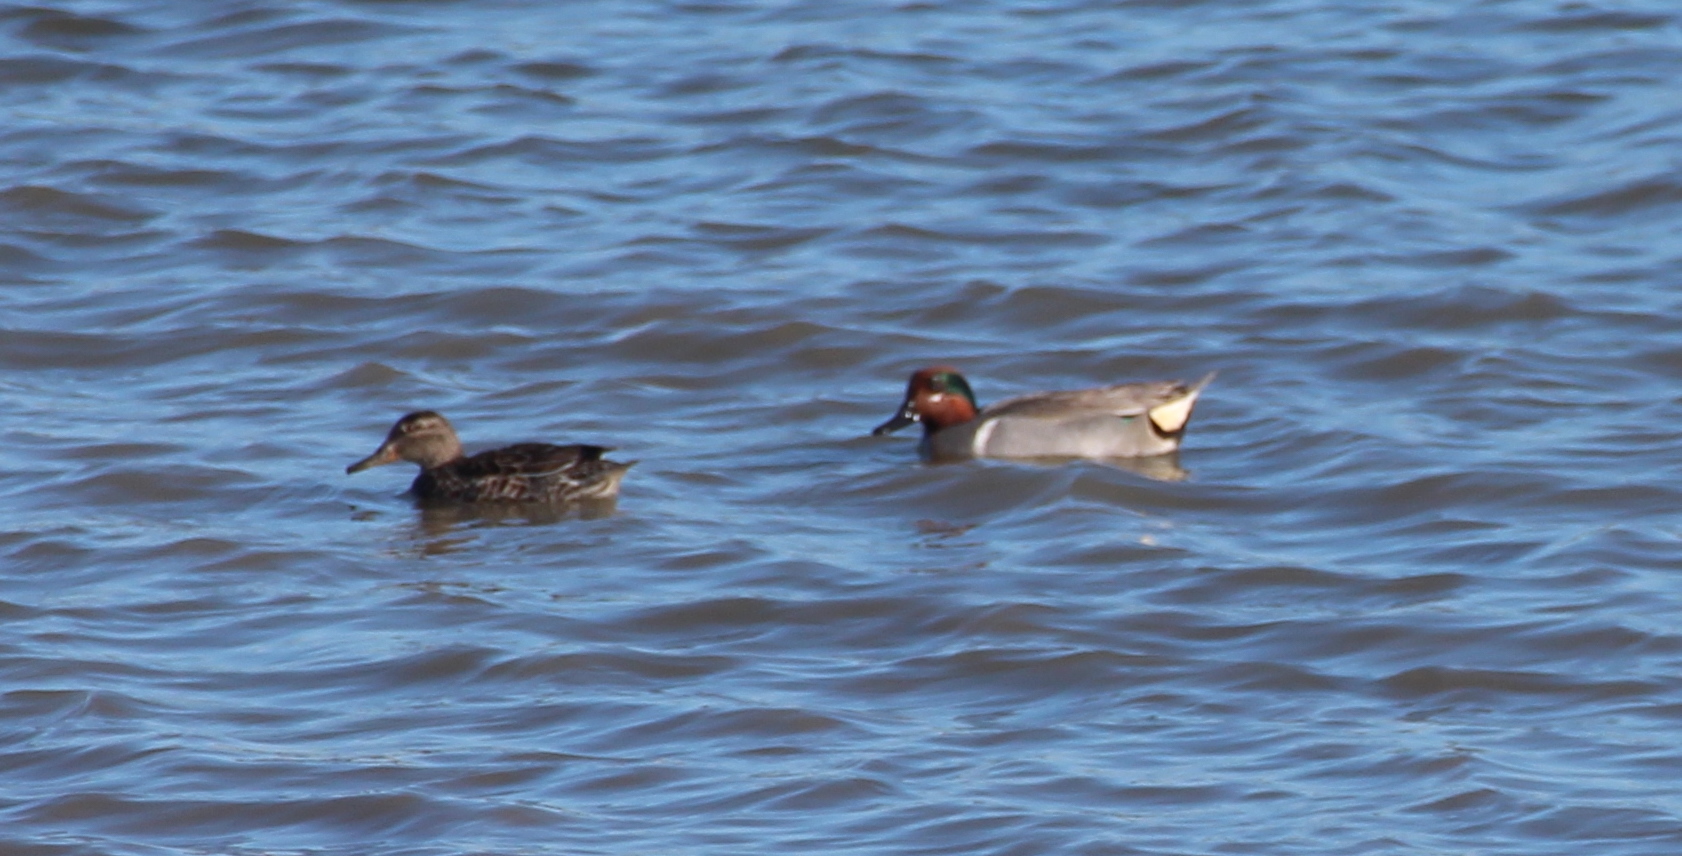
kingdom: Animalia
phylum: Chordata
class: Aves
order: Anseriformes
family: Anatidae
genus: Anas
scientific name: Anas crecca
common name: Eurasian teal
